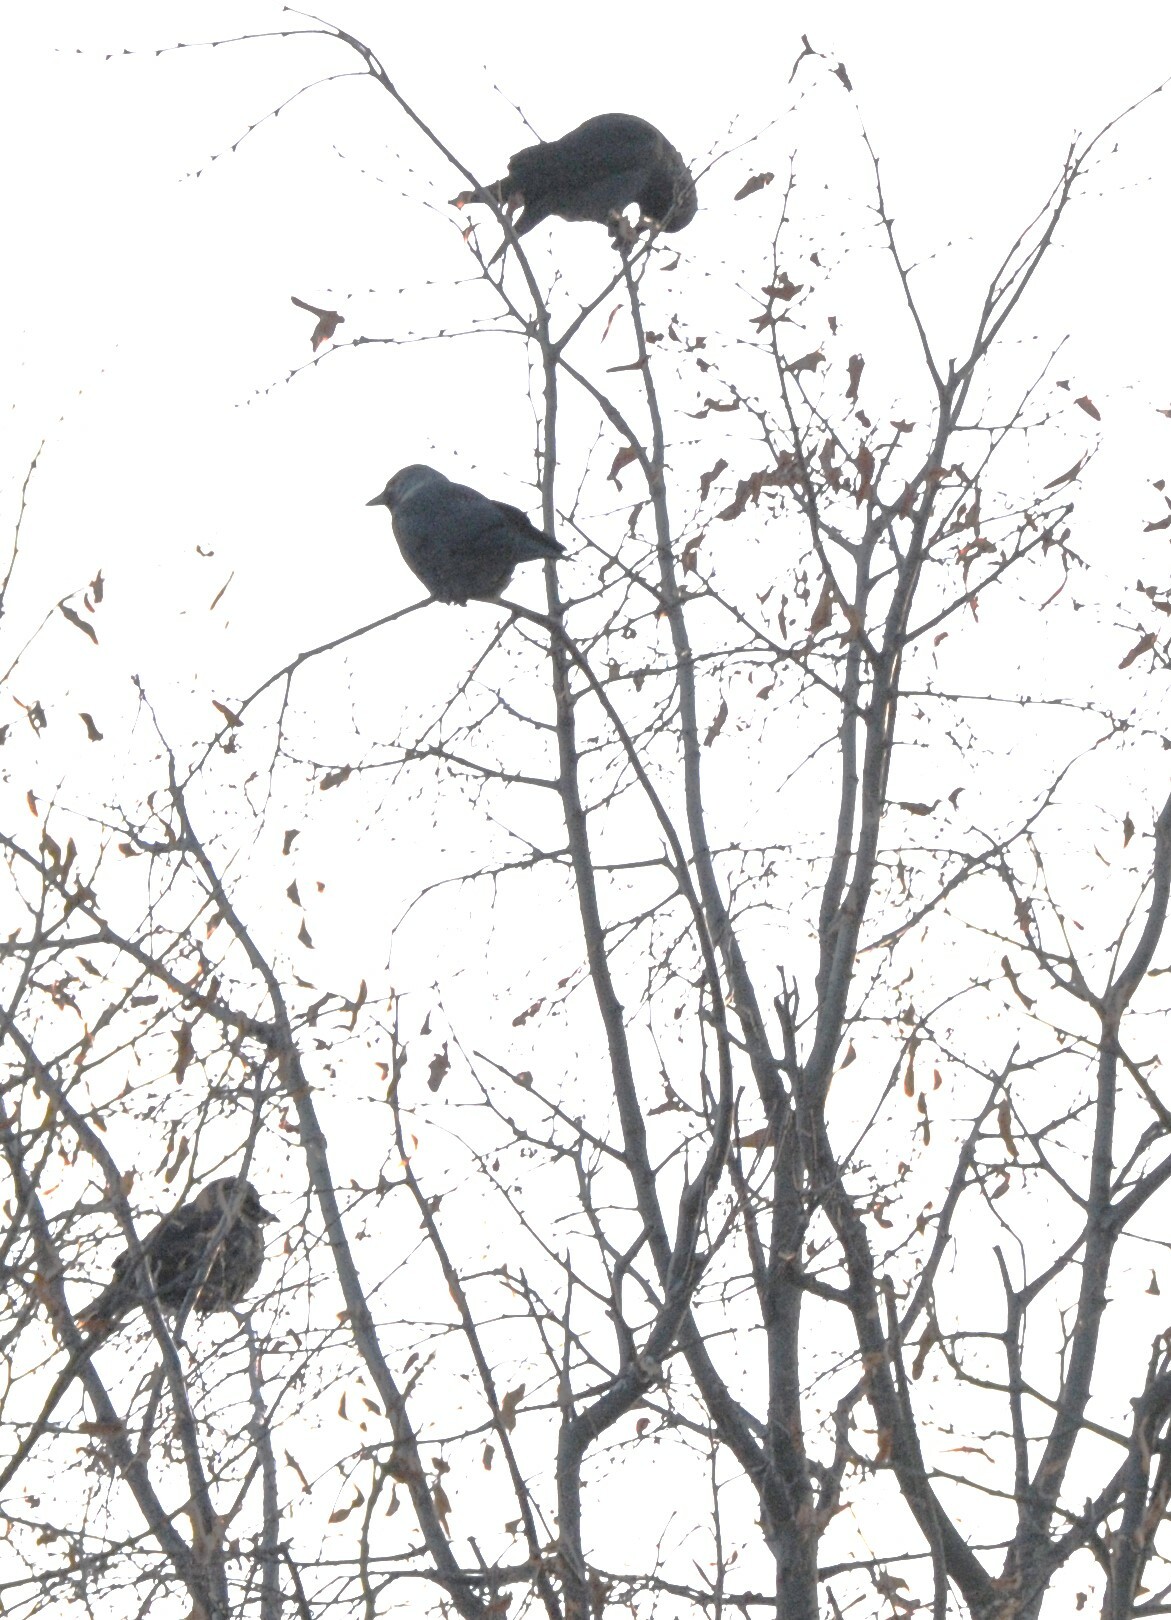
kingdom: Animalia
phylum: Chordata
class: Aves
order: Passeriformes
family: Corvidae
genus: Coloeus
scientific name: Coloeus monedula
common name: Western jackdaw
